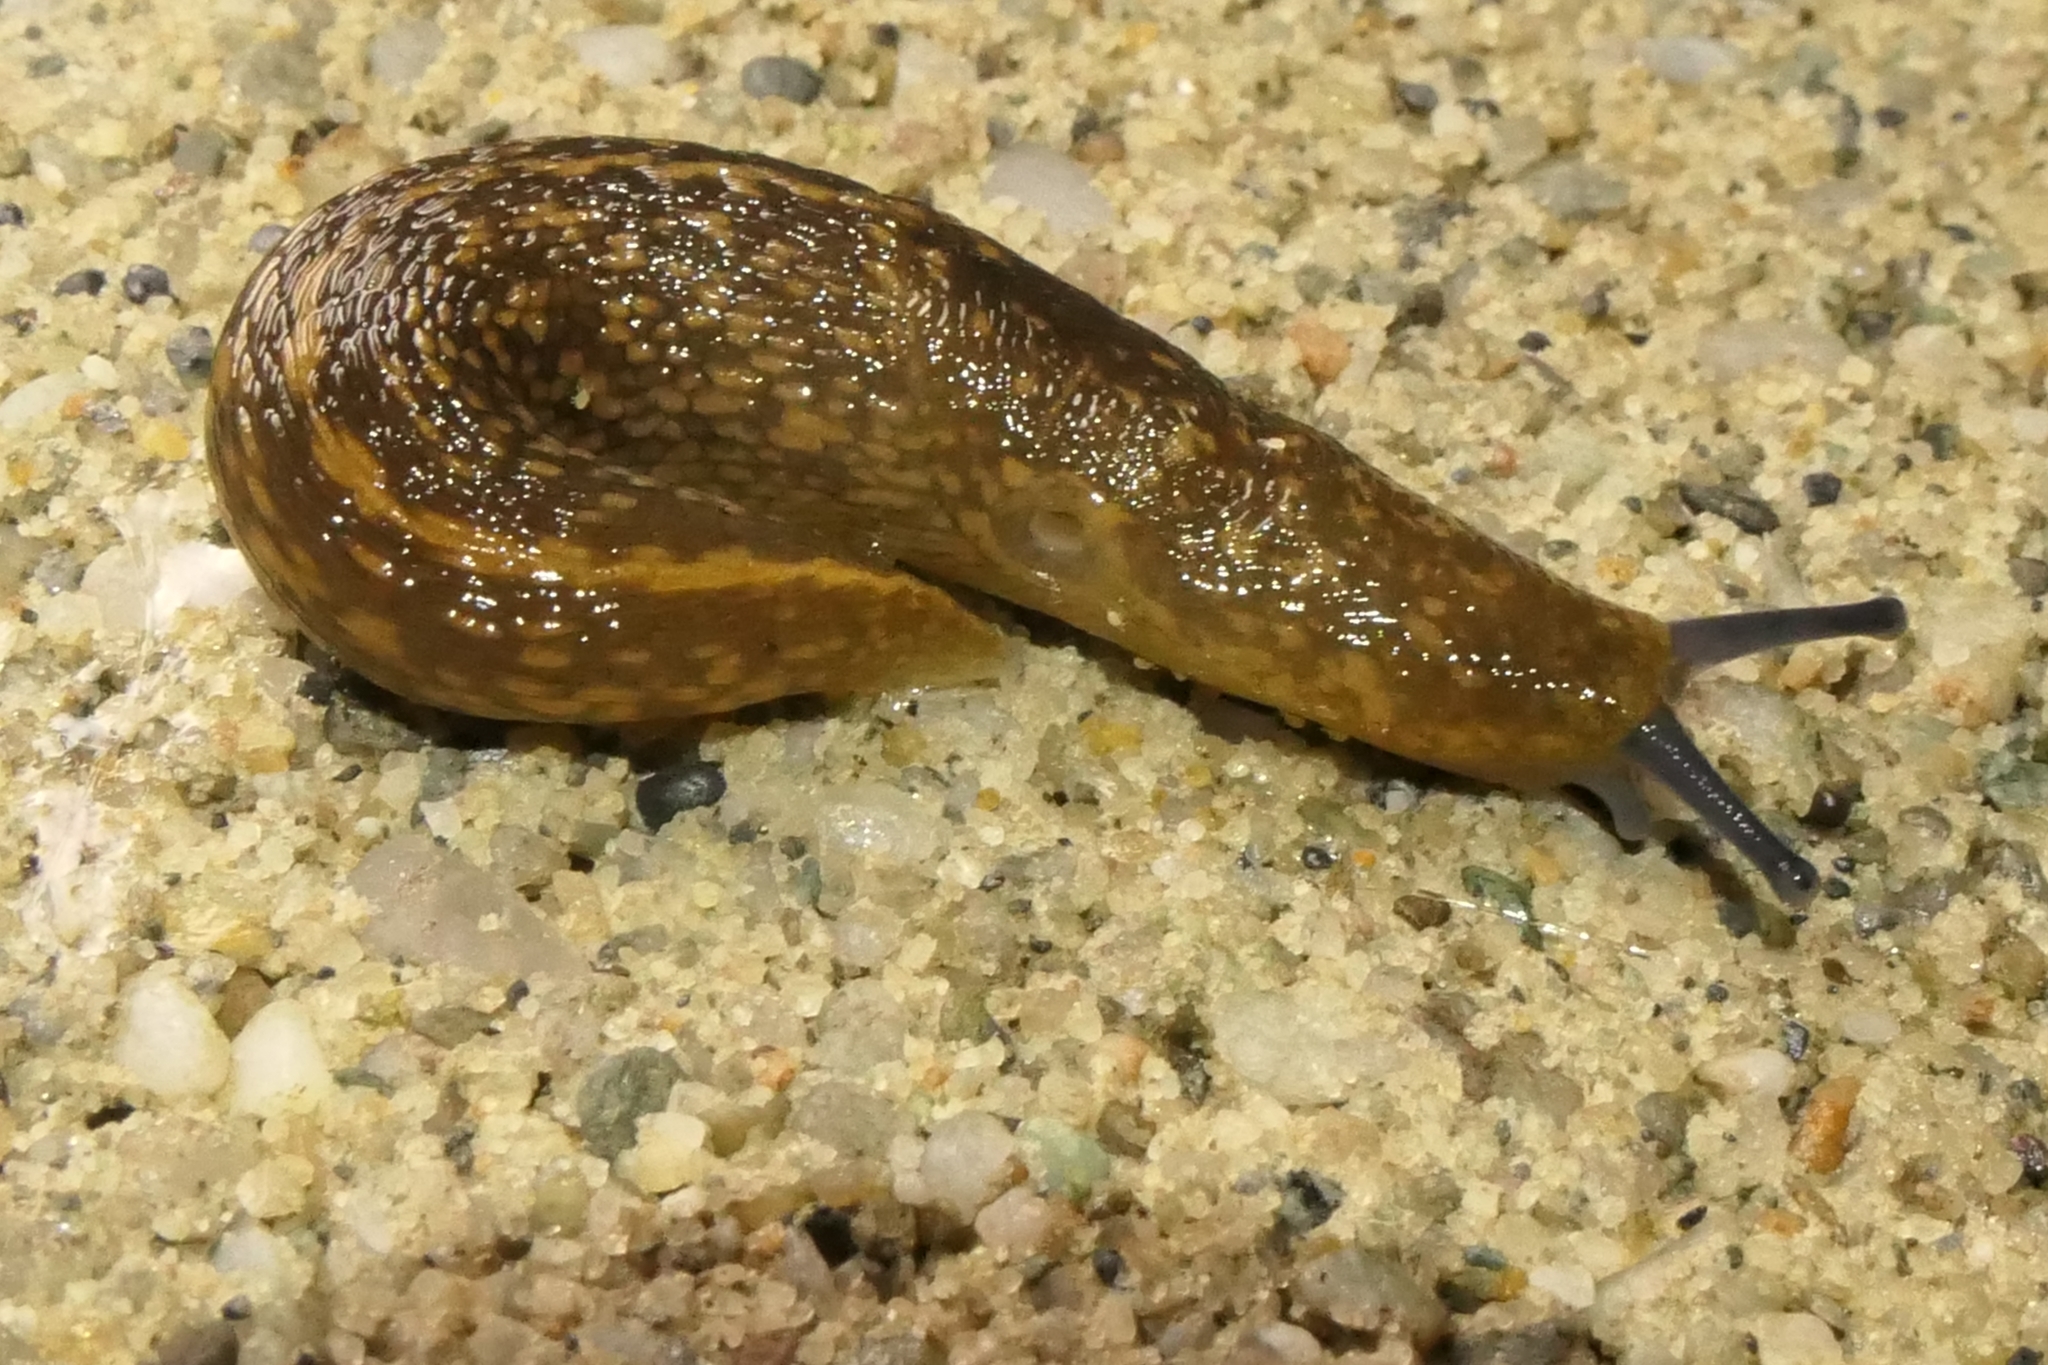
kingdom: Animalia
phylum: Mollusca
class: Gastropoda
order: Stylommatophora
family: Limacidae
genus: Limacus
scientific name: Limacus flavus
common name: Yellow gardenslug
